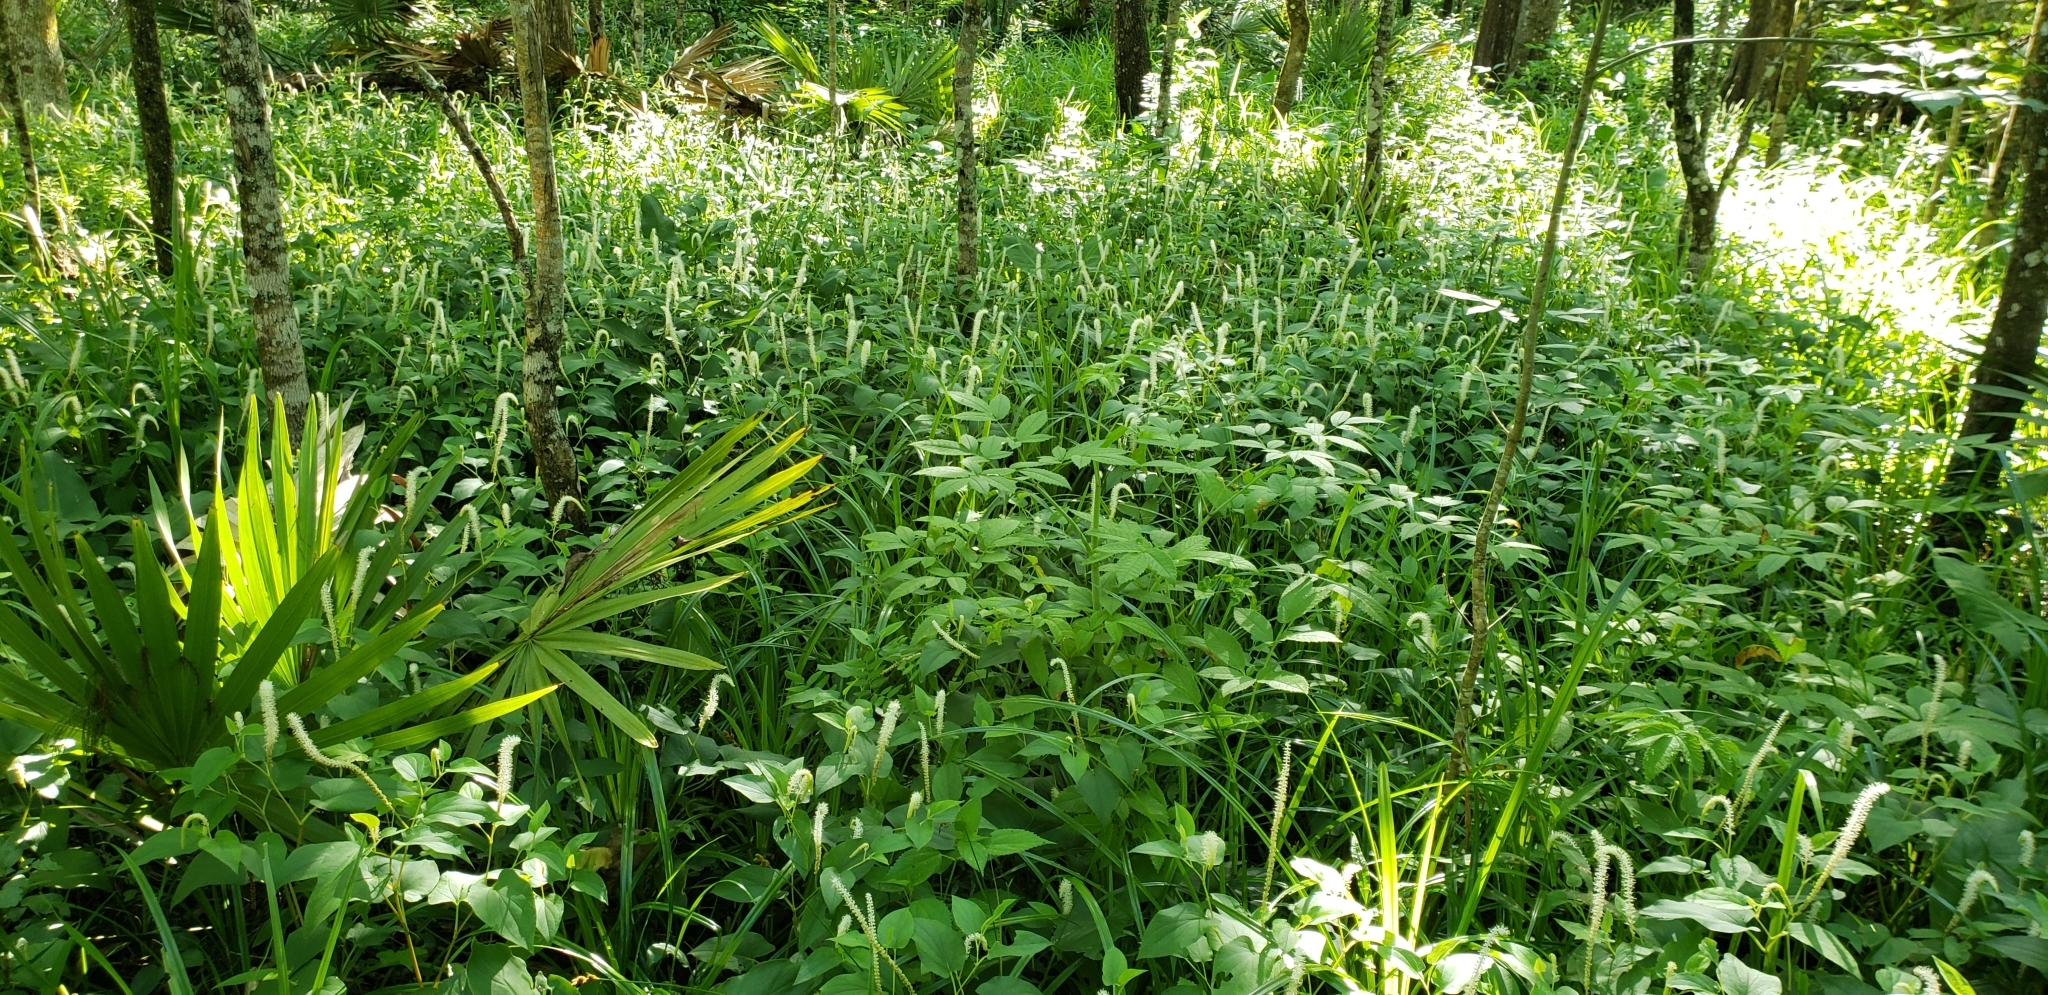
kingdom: Plantae
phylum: Tracheophyta
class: Magnoliopsida
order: Piperales
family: Saururaceae
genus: Saururus
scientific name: Saururus cernuus
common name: Lizard's-tail
